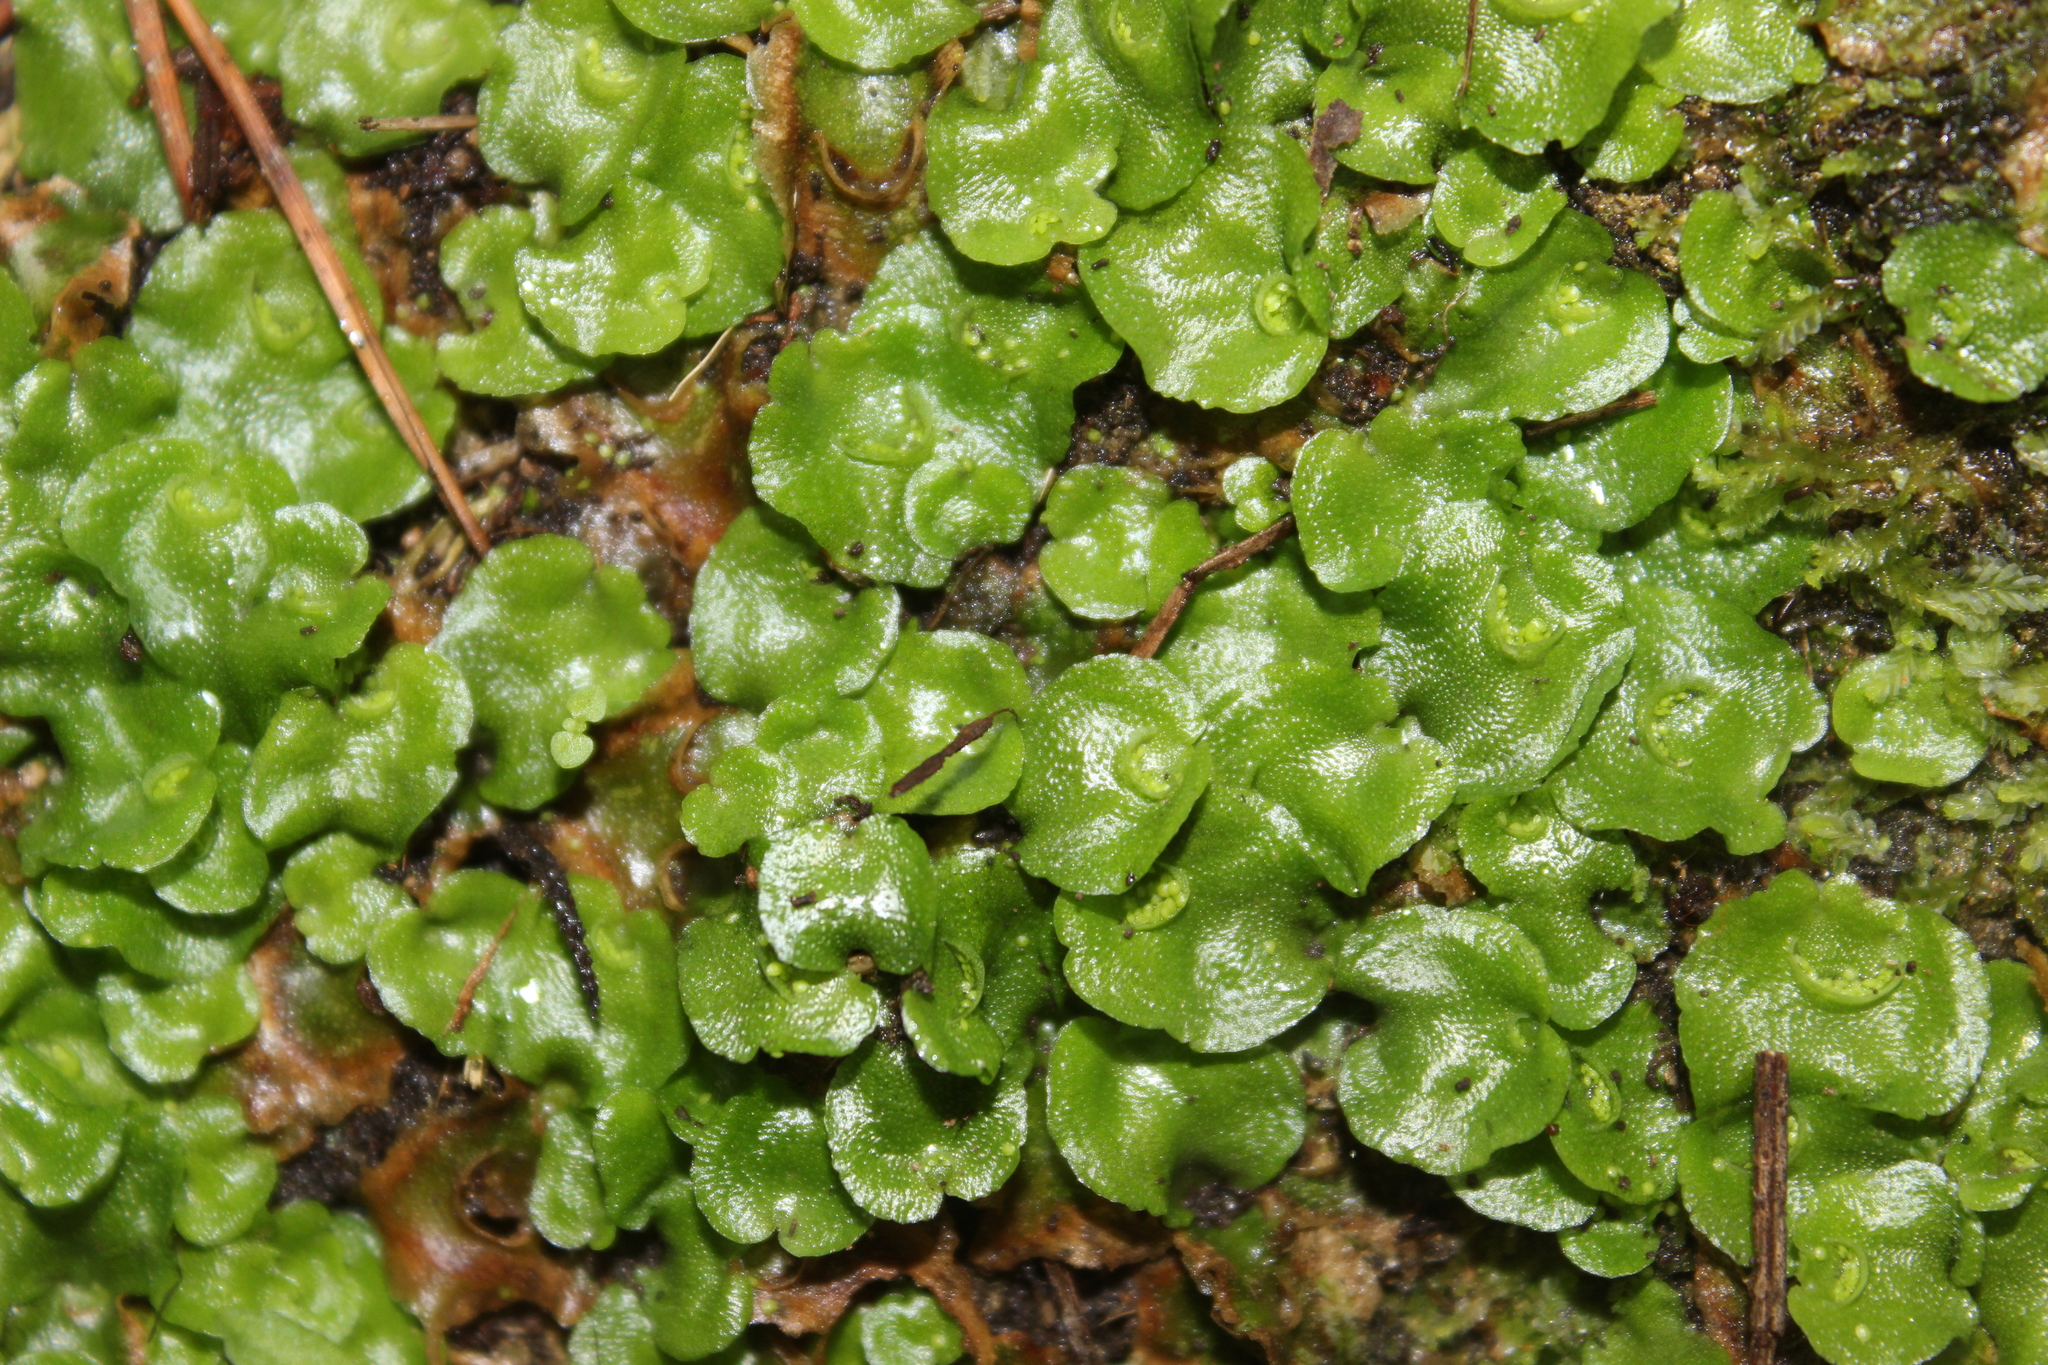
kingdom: Plantae
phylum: Marchantiophyta
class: Marchantiopsida
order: Lunulariales
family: Lunulariaceae
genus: Lunularia
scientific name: Lunularia cruciata
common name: Crescent-cup liverwort
